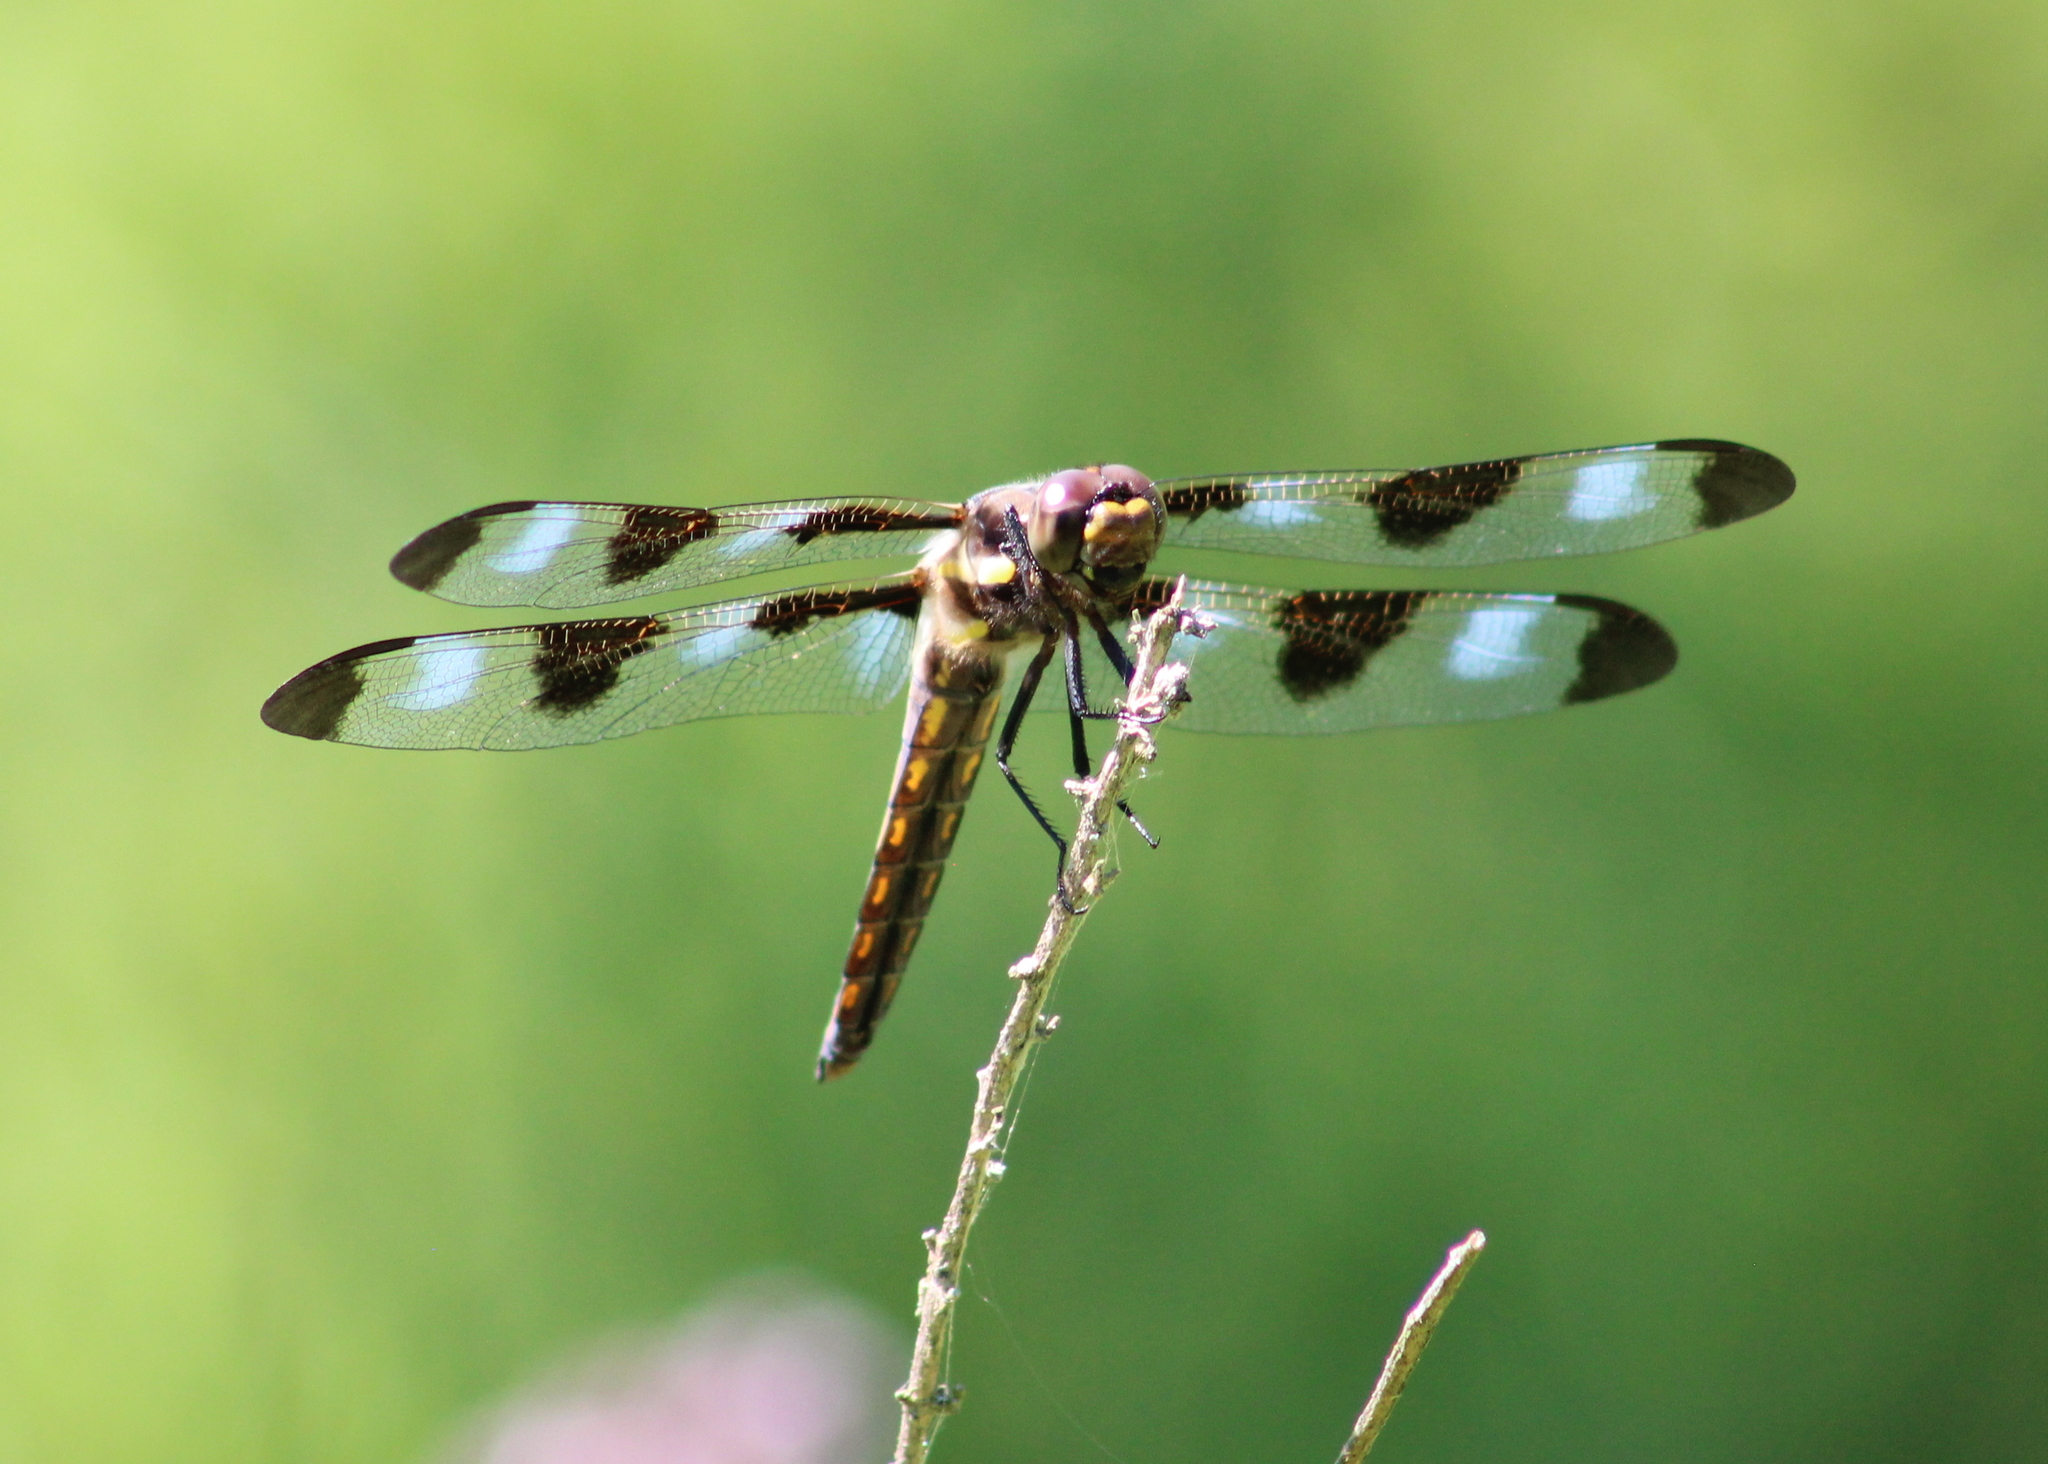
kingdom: Animalia
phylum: Arthropoda
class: Insecta
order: Odonata
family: Libellulidae
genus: Libellula
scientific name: Libellula pulchella
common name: Twelve-spotted skimmer
